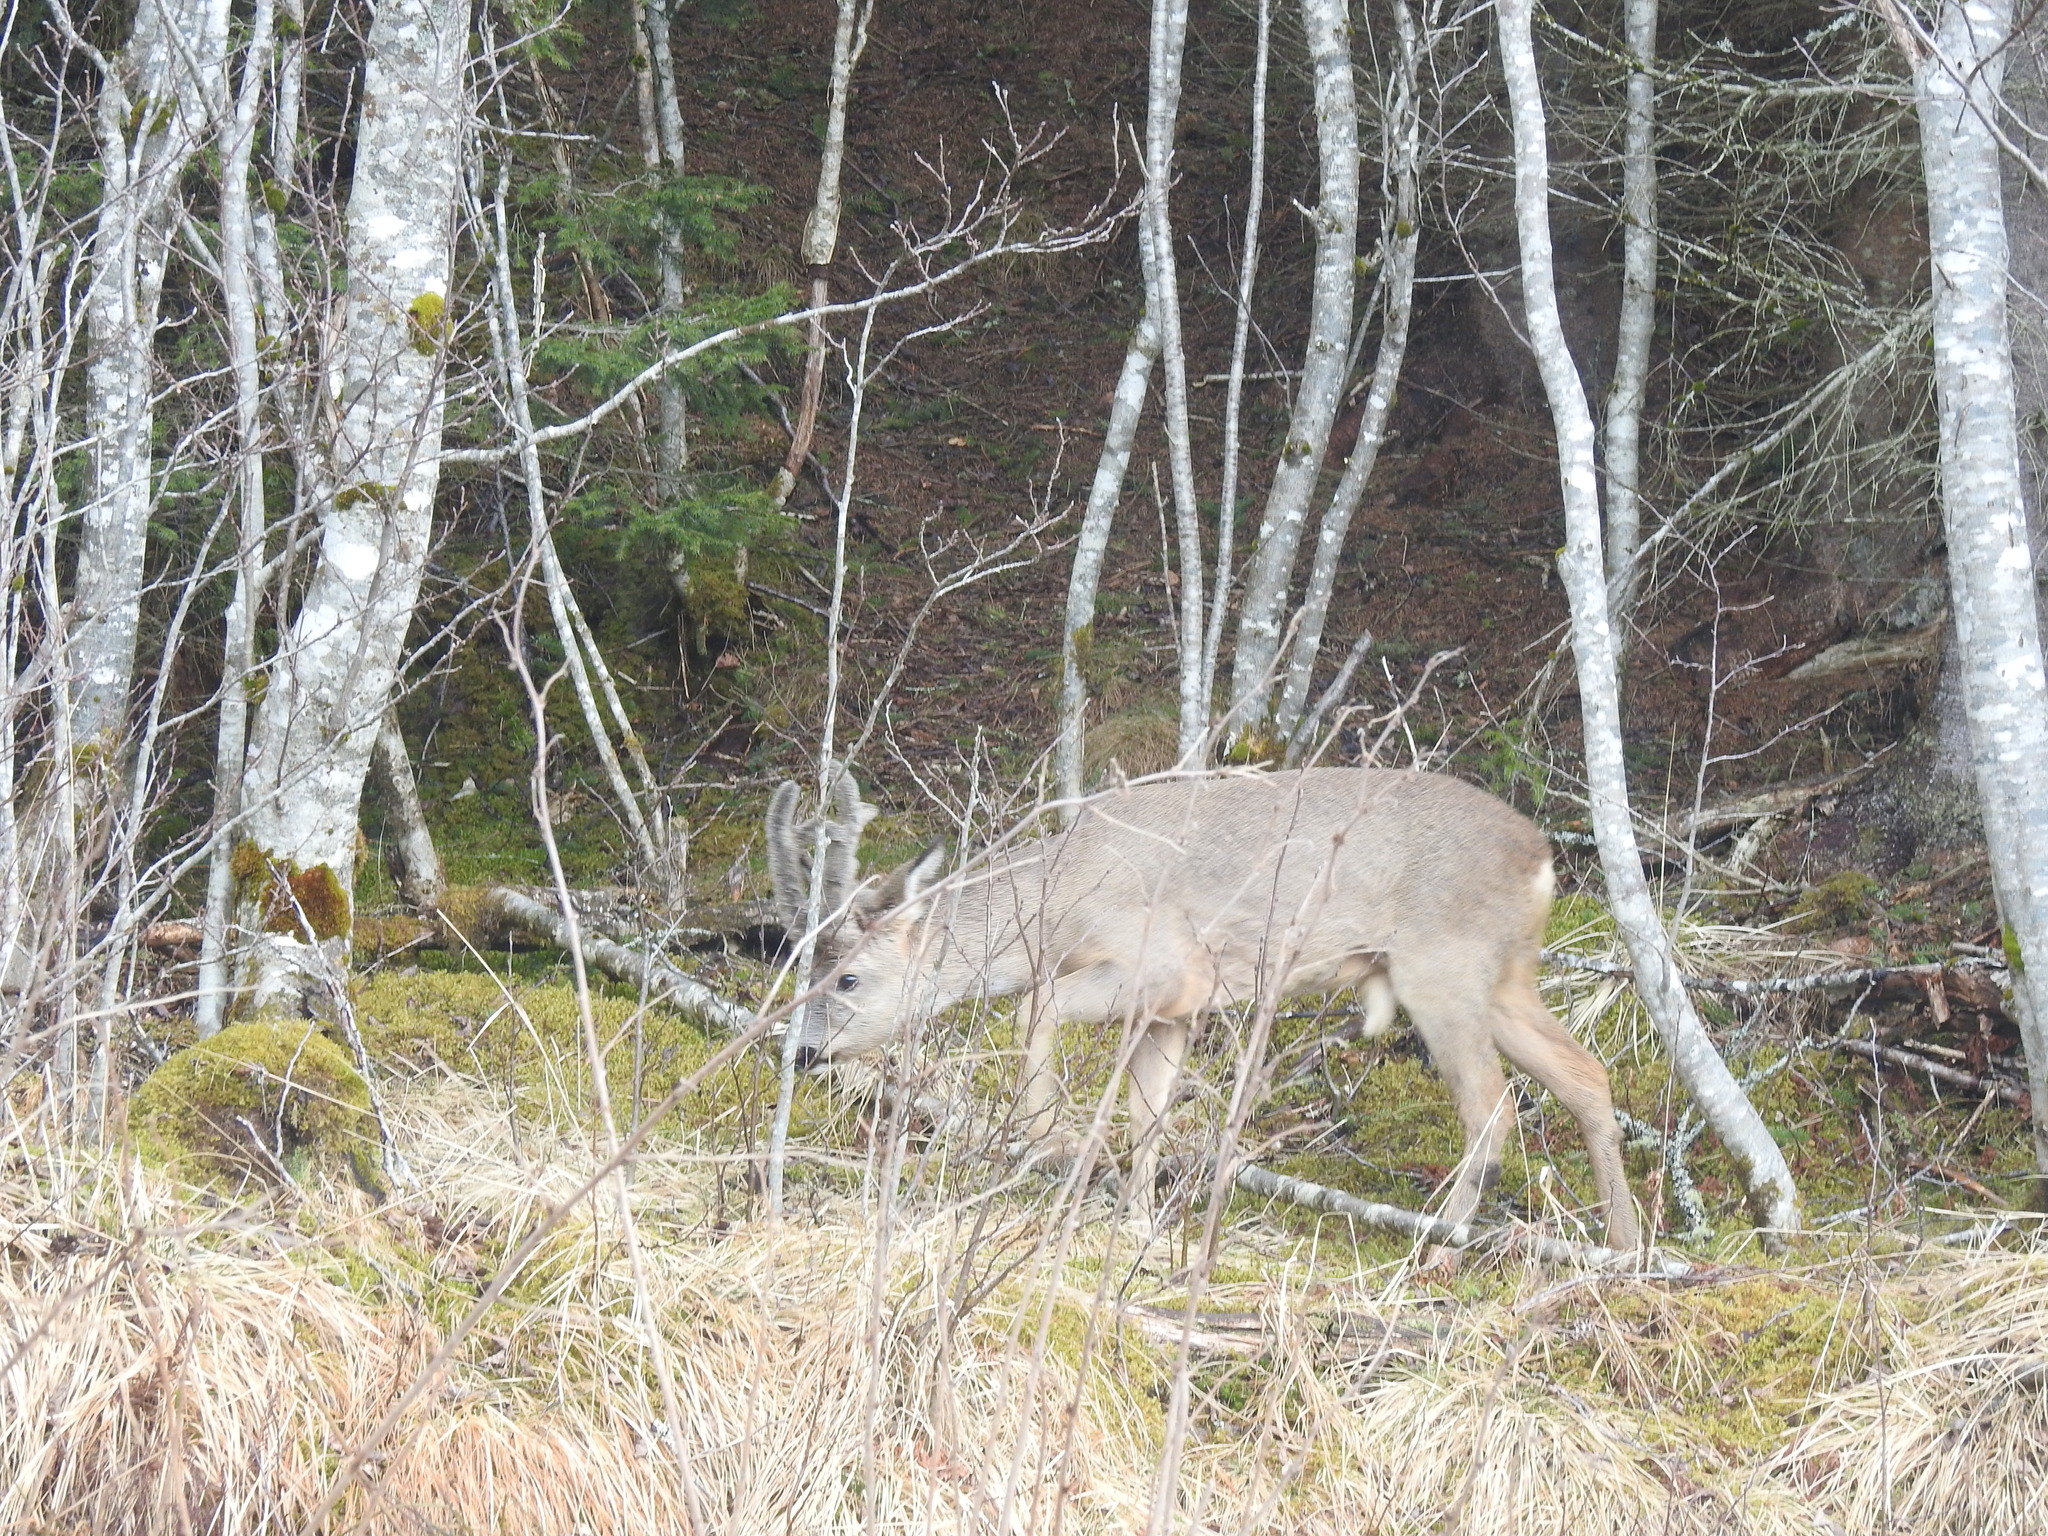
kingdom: Animalia
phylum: Chordata
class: Mammalia
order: Artiodactyla
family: Cervidae
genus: Capreolus
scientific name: Capreolus capreolus
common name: Western roe deer
